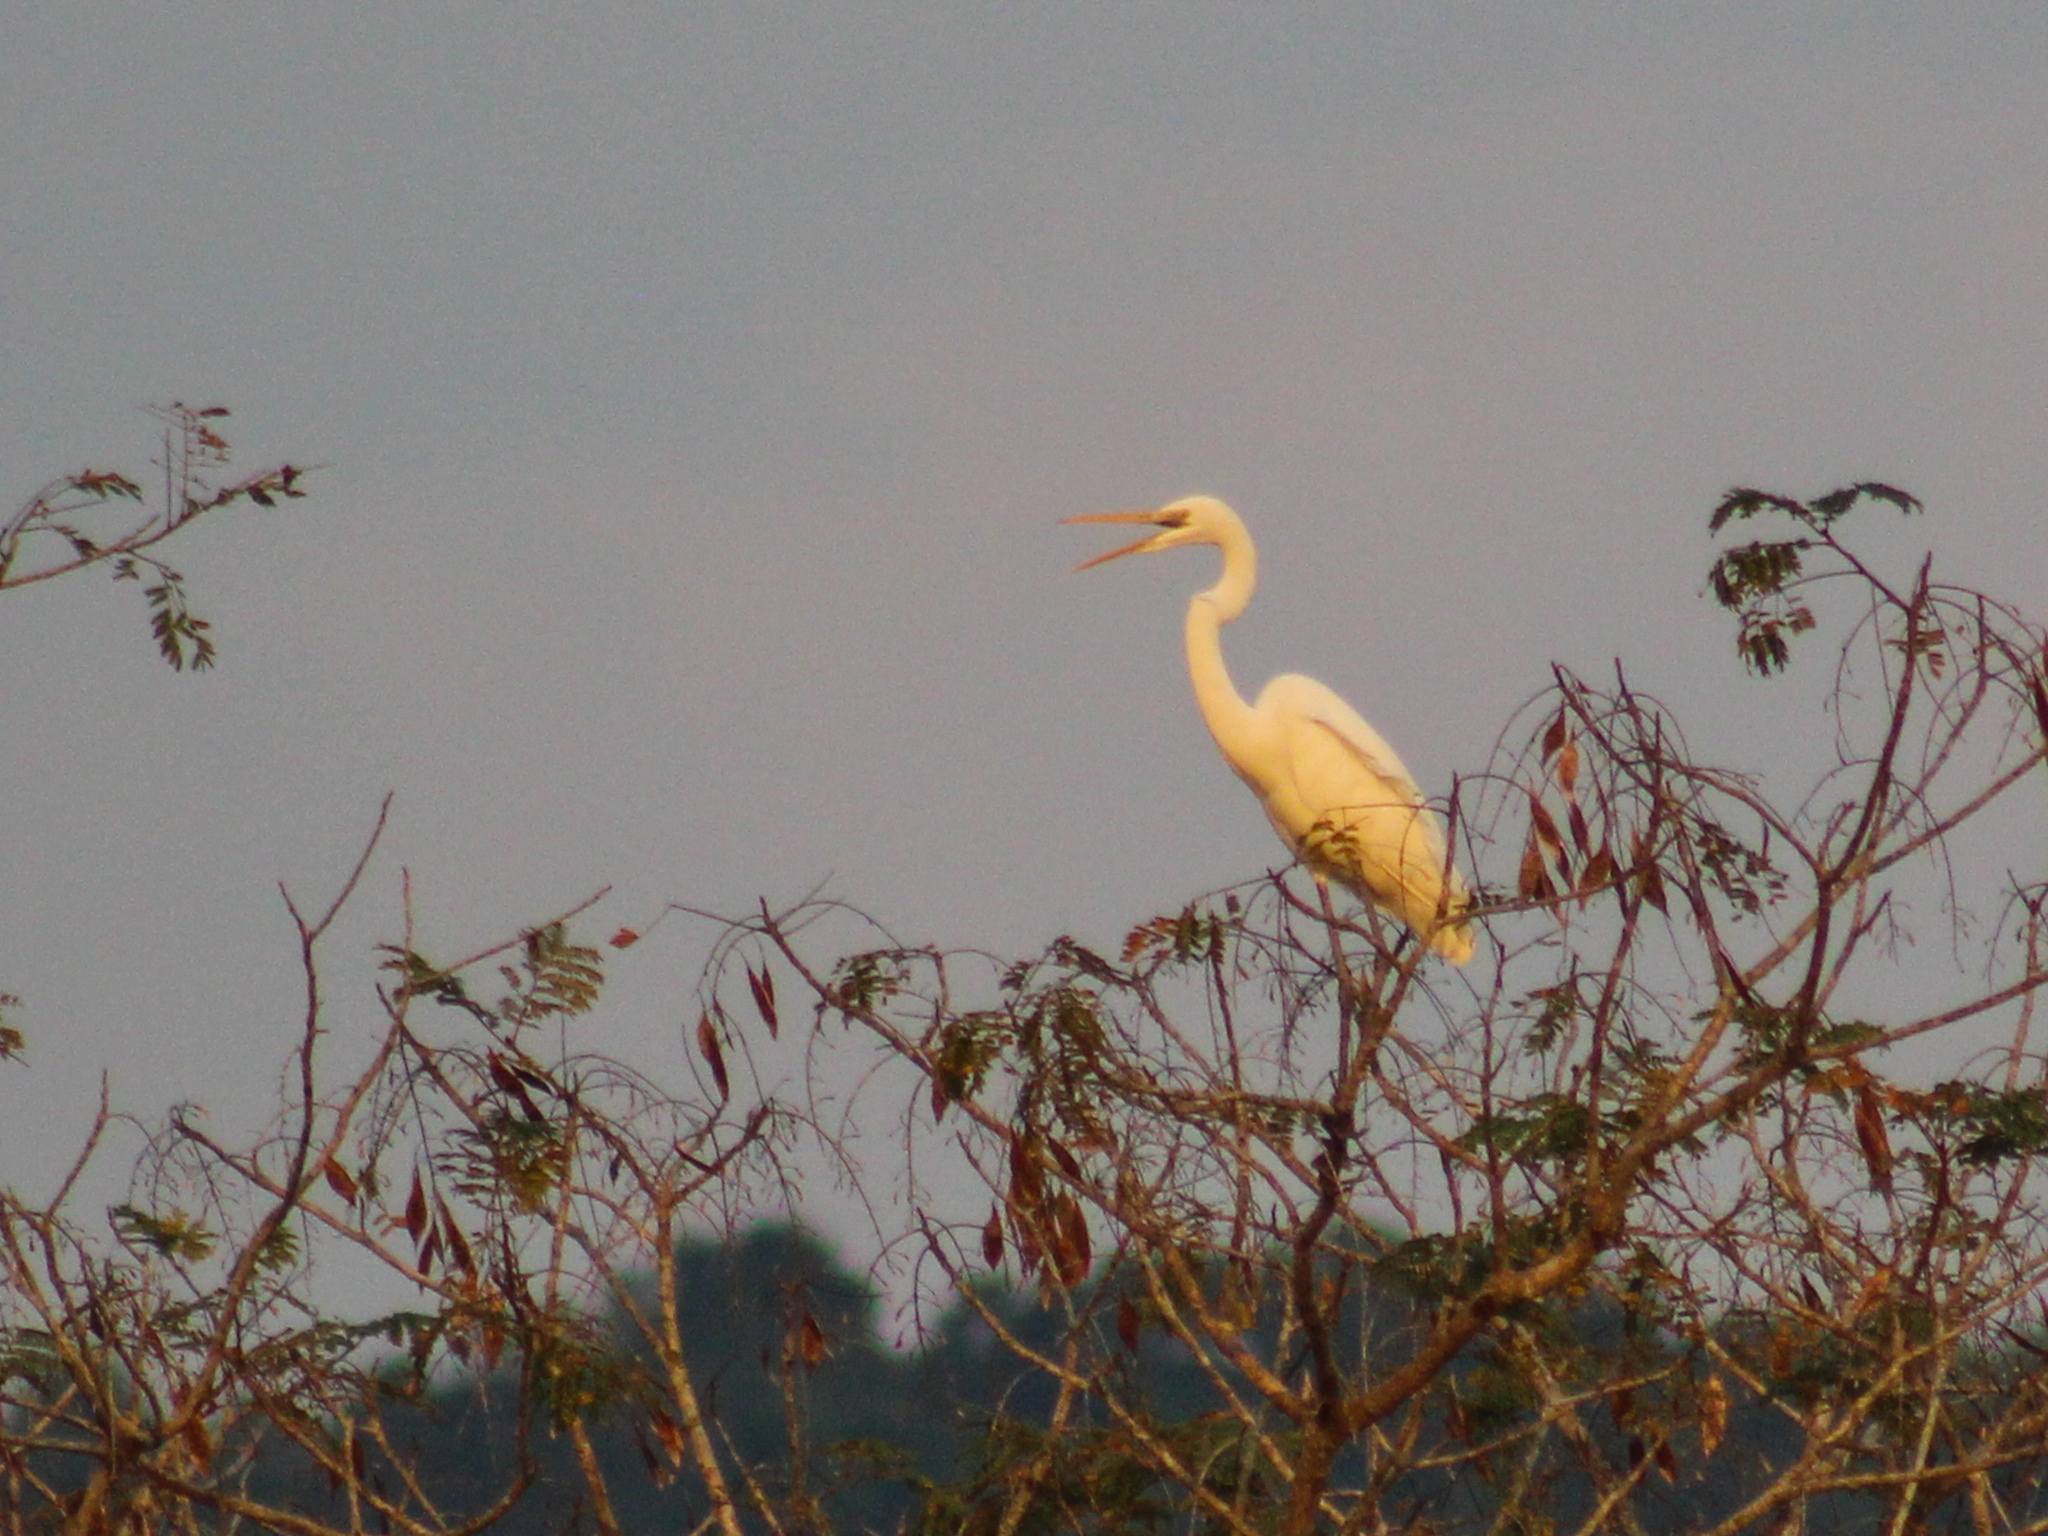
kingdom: Animalia
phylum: Chordata
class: Aves
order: Pelecaniformes
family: Ardeidae
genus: Ardea
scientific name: Ardea alba
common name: Great egret
